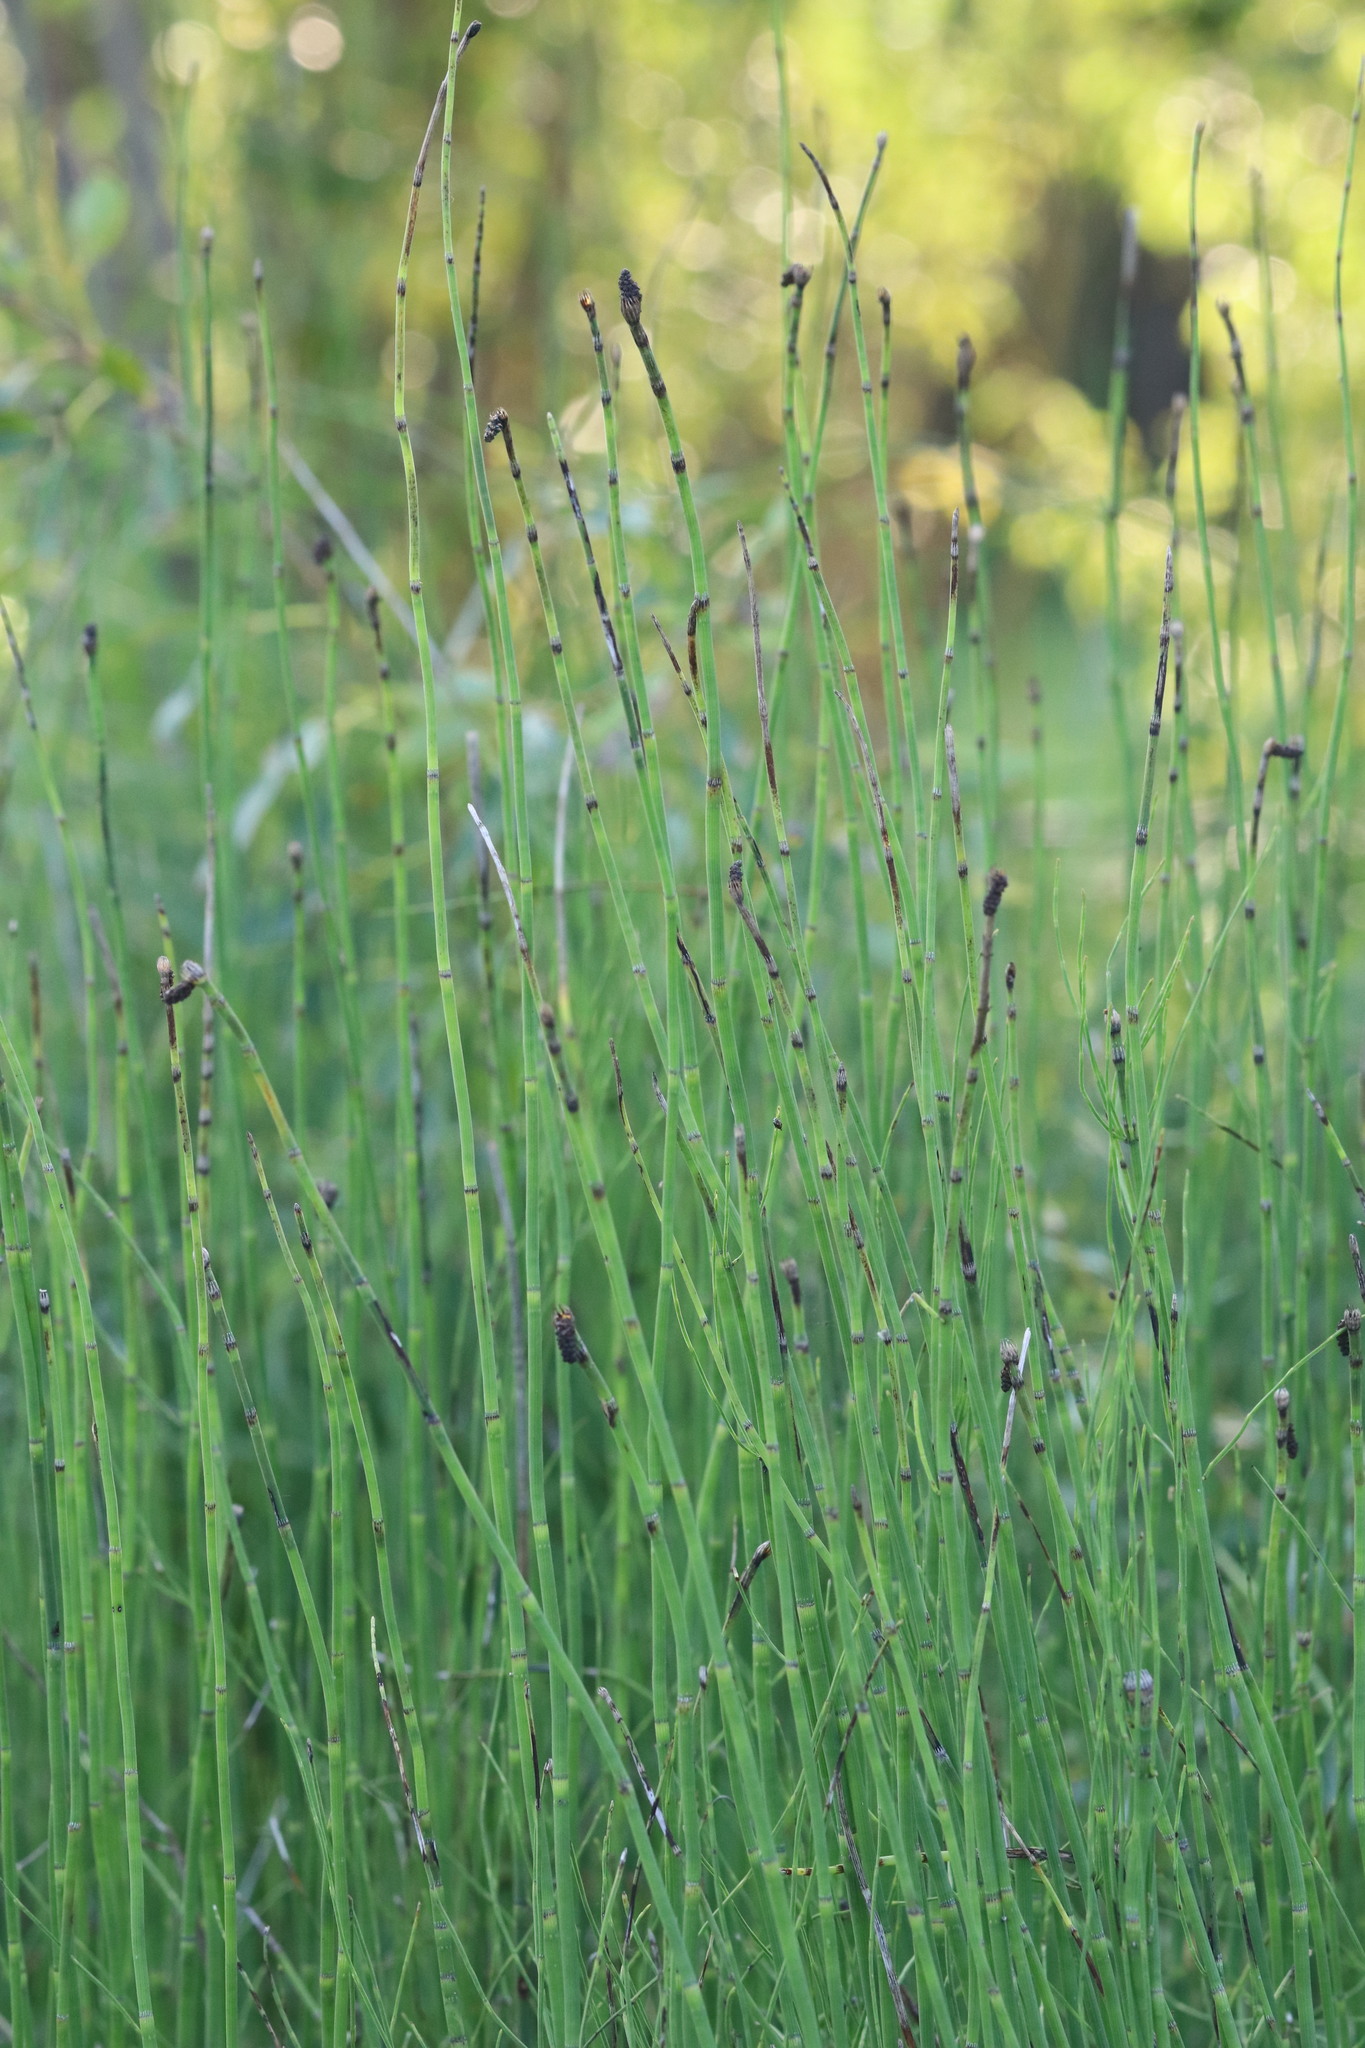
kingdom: Plantae
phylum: Tracheophyta
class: Polypodiopsida
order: Equisetales
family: Equisetaceae
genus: Equisetum
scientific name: Equisetum fluviatile
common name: Water horsetail
